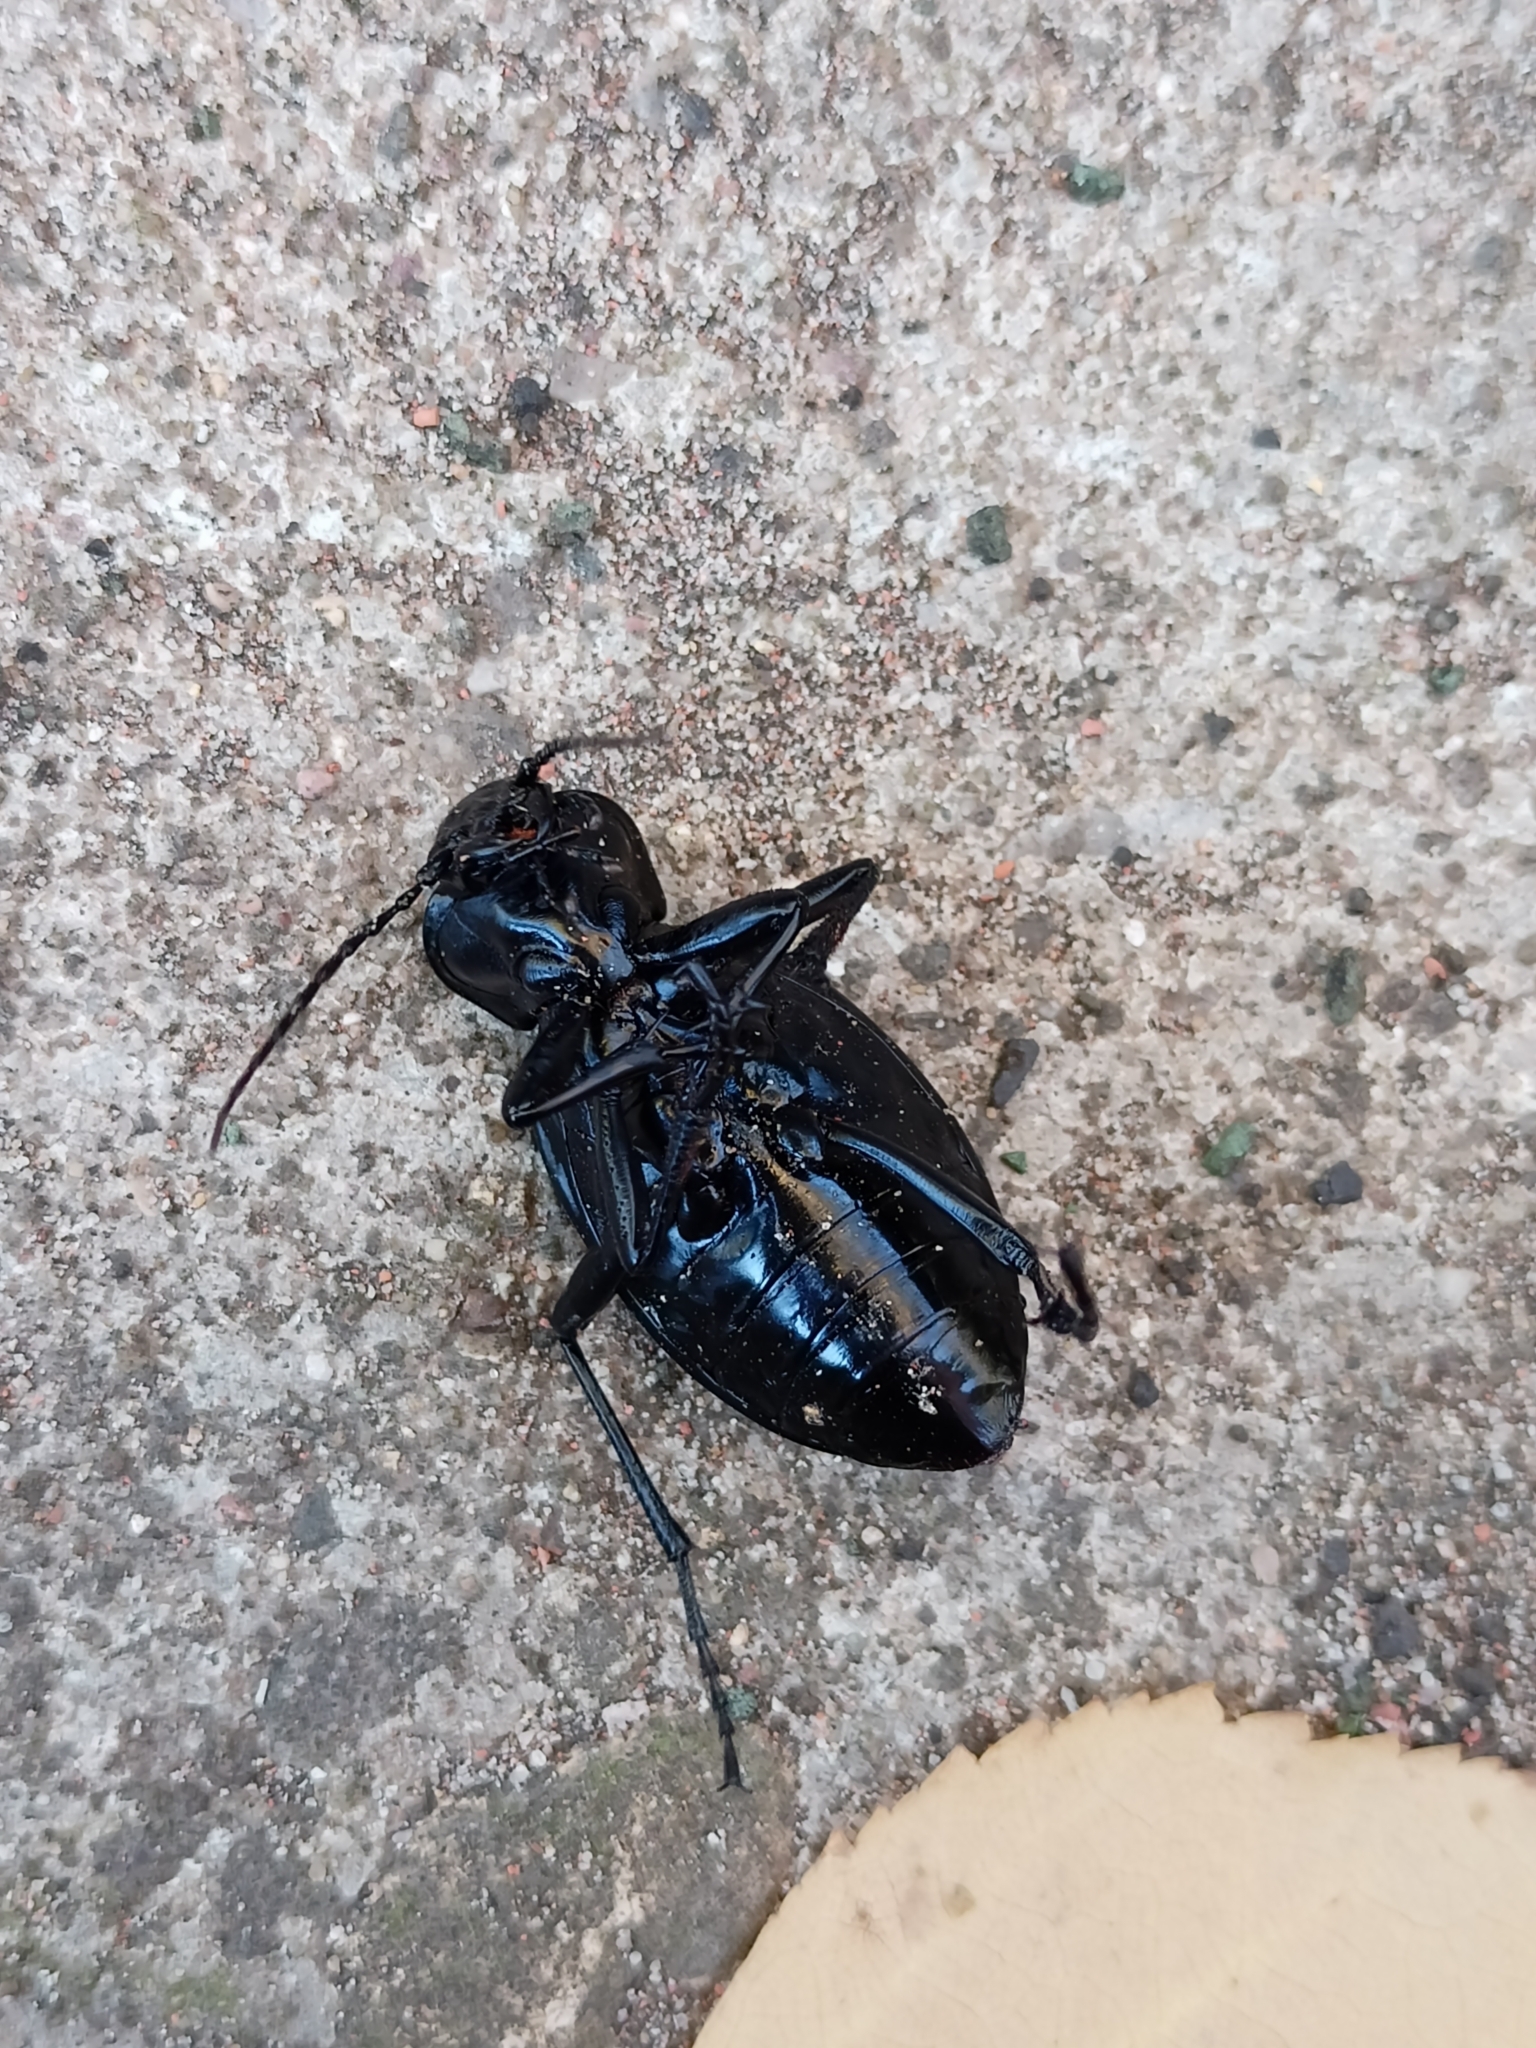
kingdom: Animalia
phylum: Arthropoda
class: Insecta
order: Coleoptera
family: Carabidae
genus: Carabus
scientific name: Carabus coriaceus
